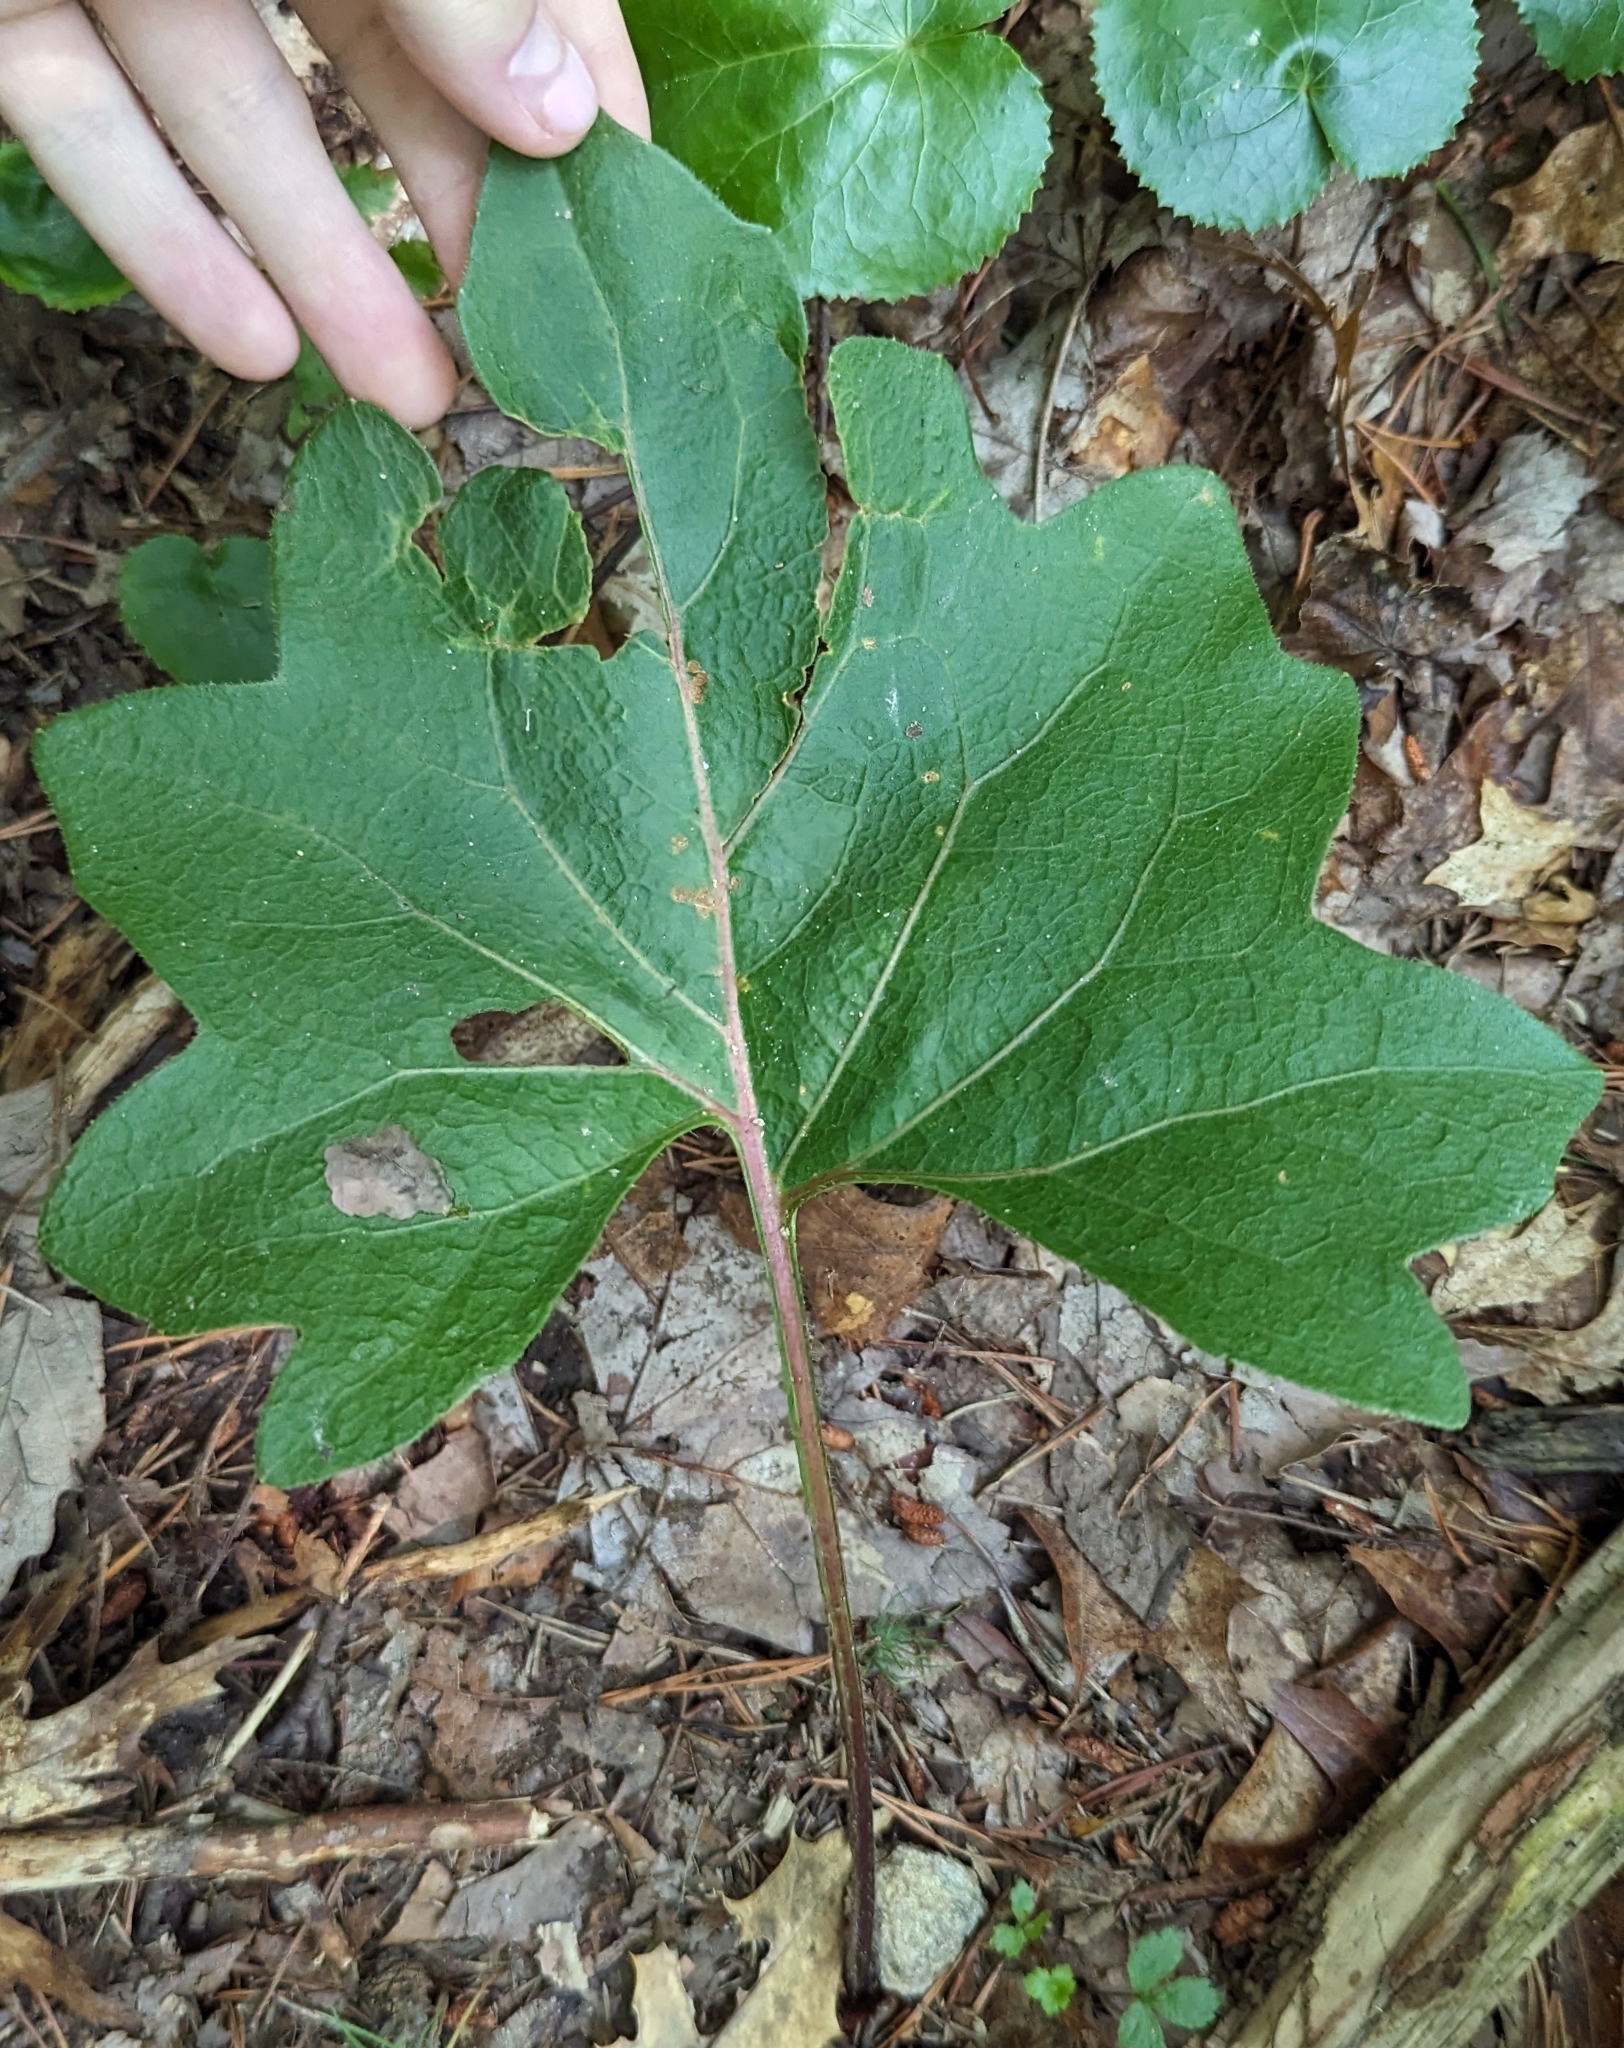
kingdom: Plantae
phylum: Tracheophyta
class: Magnoliopsida
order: Asterales
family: Asteraceae
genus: Silphium
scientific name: Silphium compositum
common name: Lesser basal-leaf rosinweed
